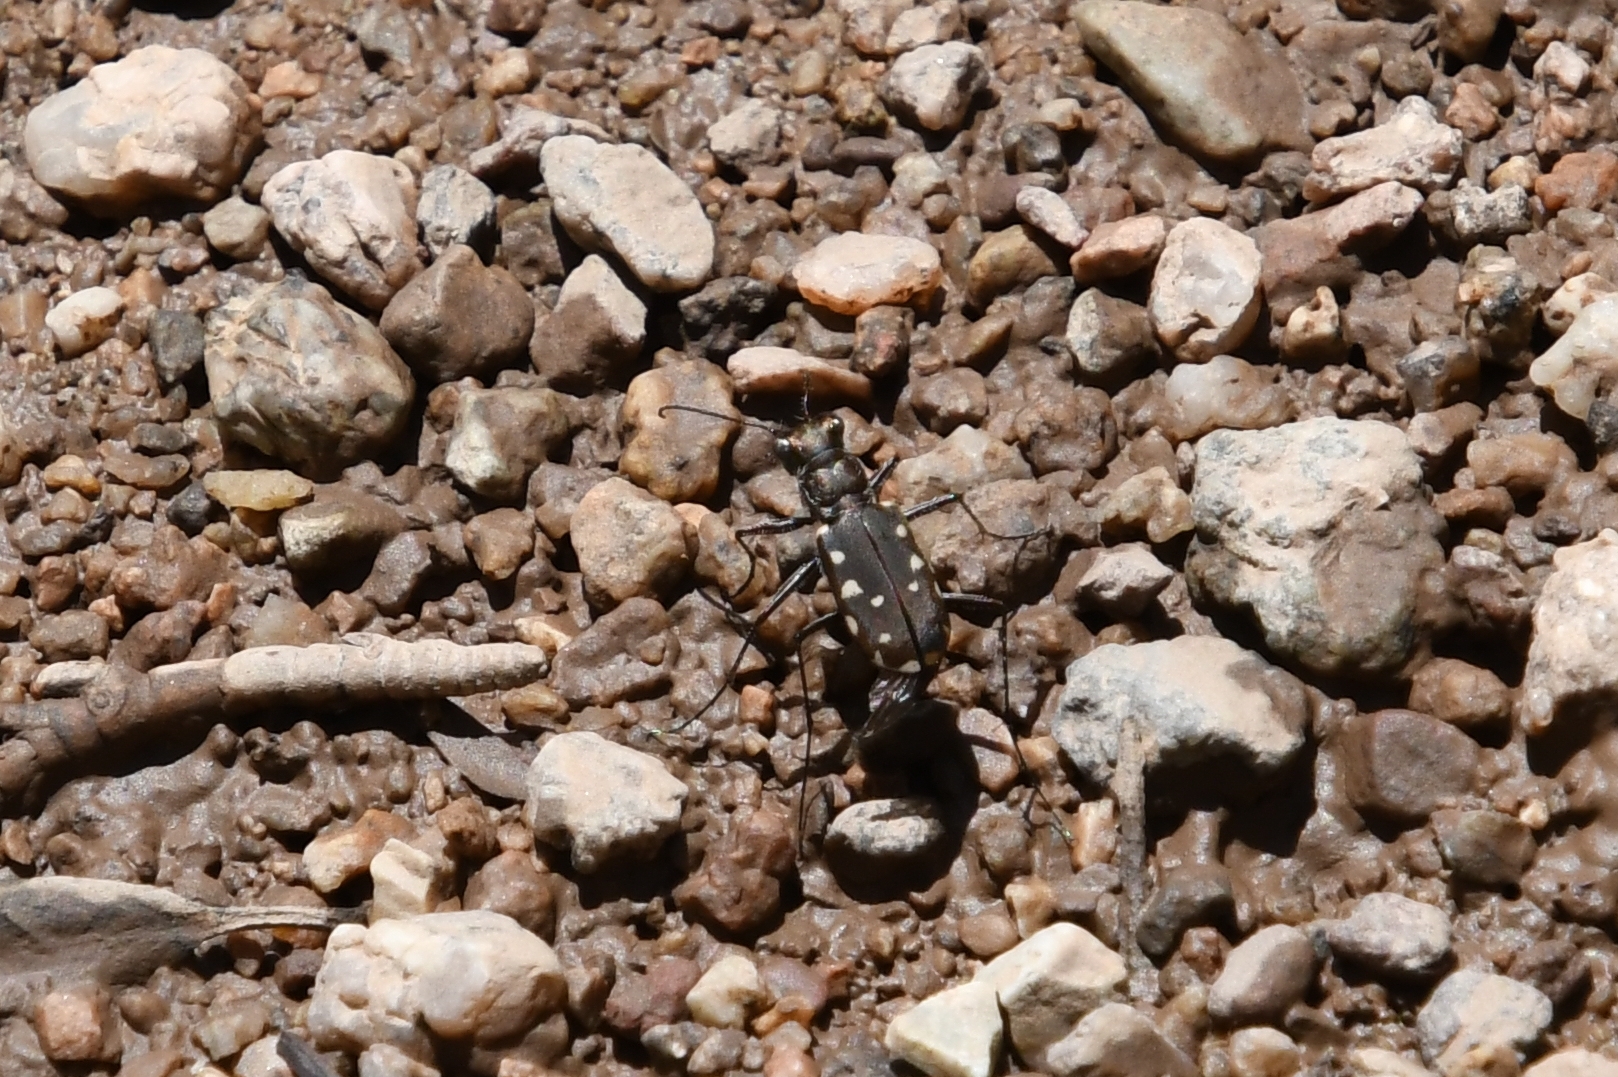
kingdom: Animalia
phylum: Arthropoda
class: Insecta
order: Coleoptera
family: Carabidae
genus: Cicindela
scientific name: Cicindela sedecimpunctata
